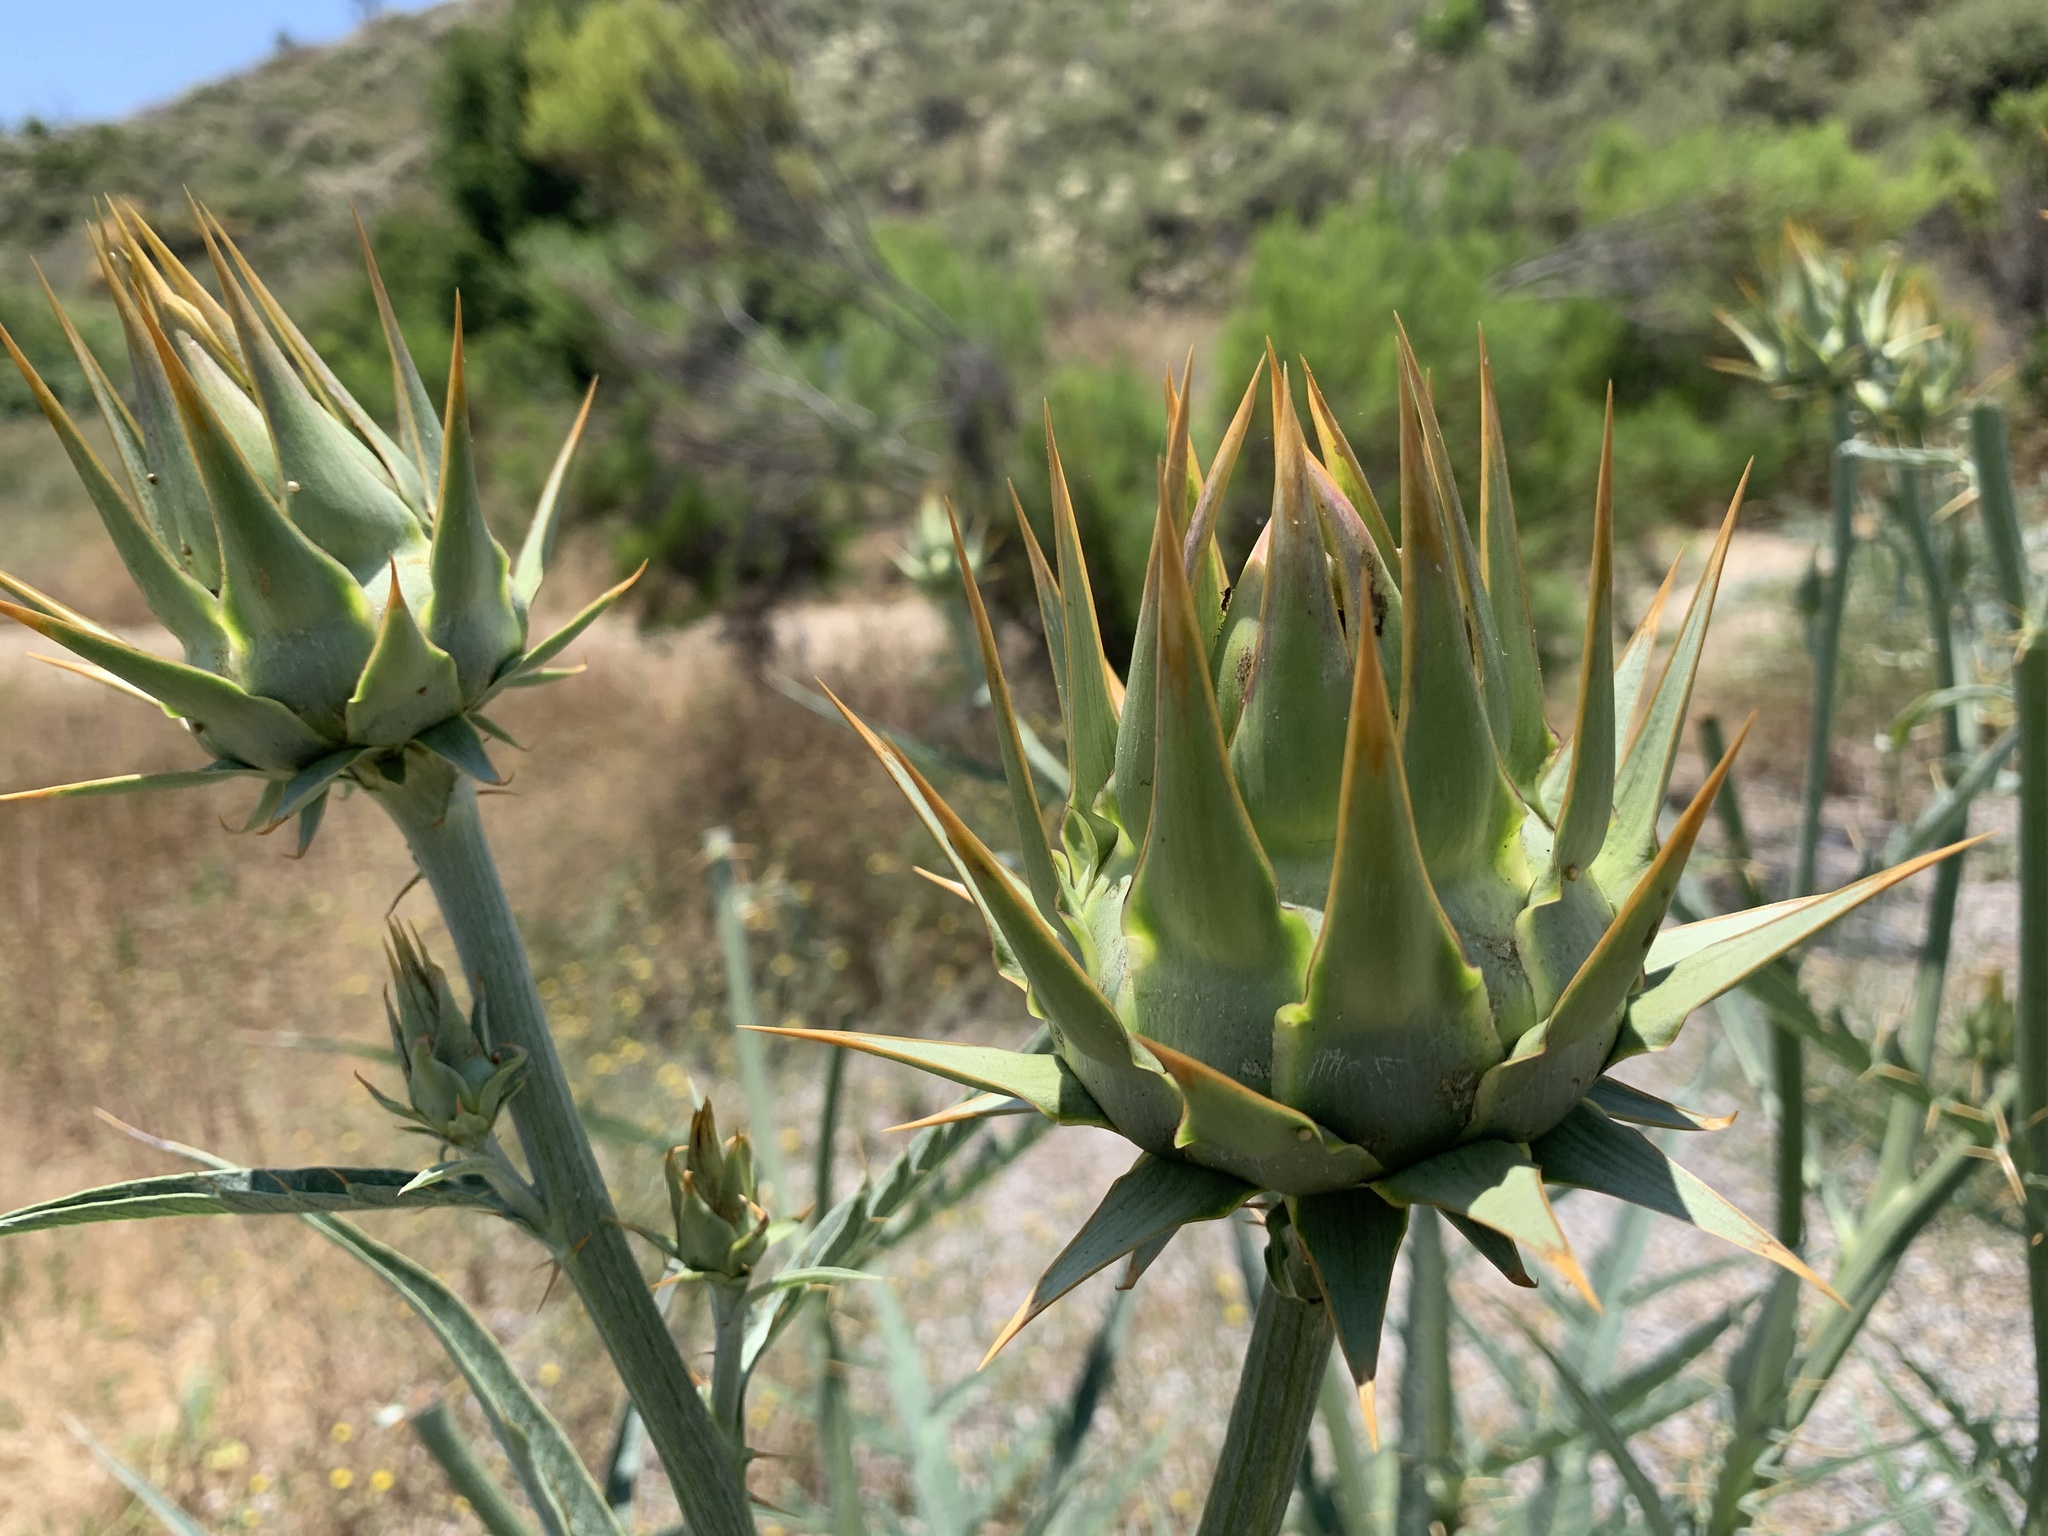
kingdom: Plantae
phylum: Tracheophyta
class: Magnoliopsida
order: Asterales
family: Asteraceae
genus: Cynara
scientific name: Cynara cardunculus
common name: Globe artichoke
